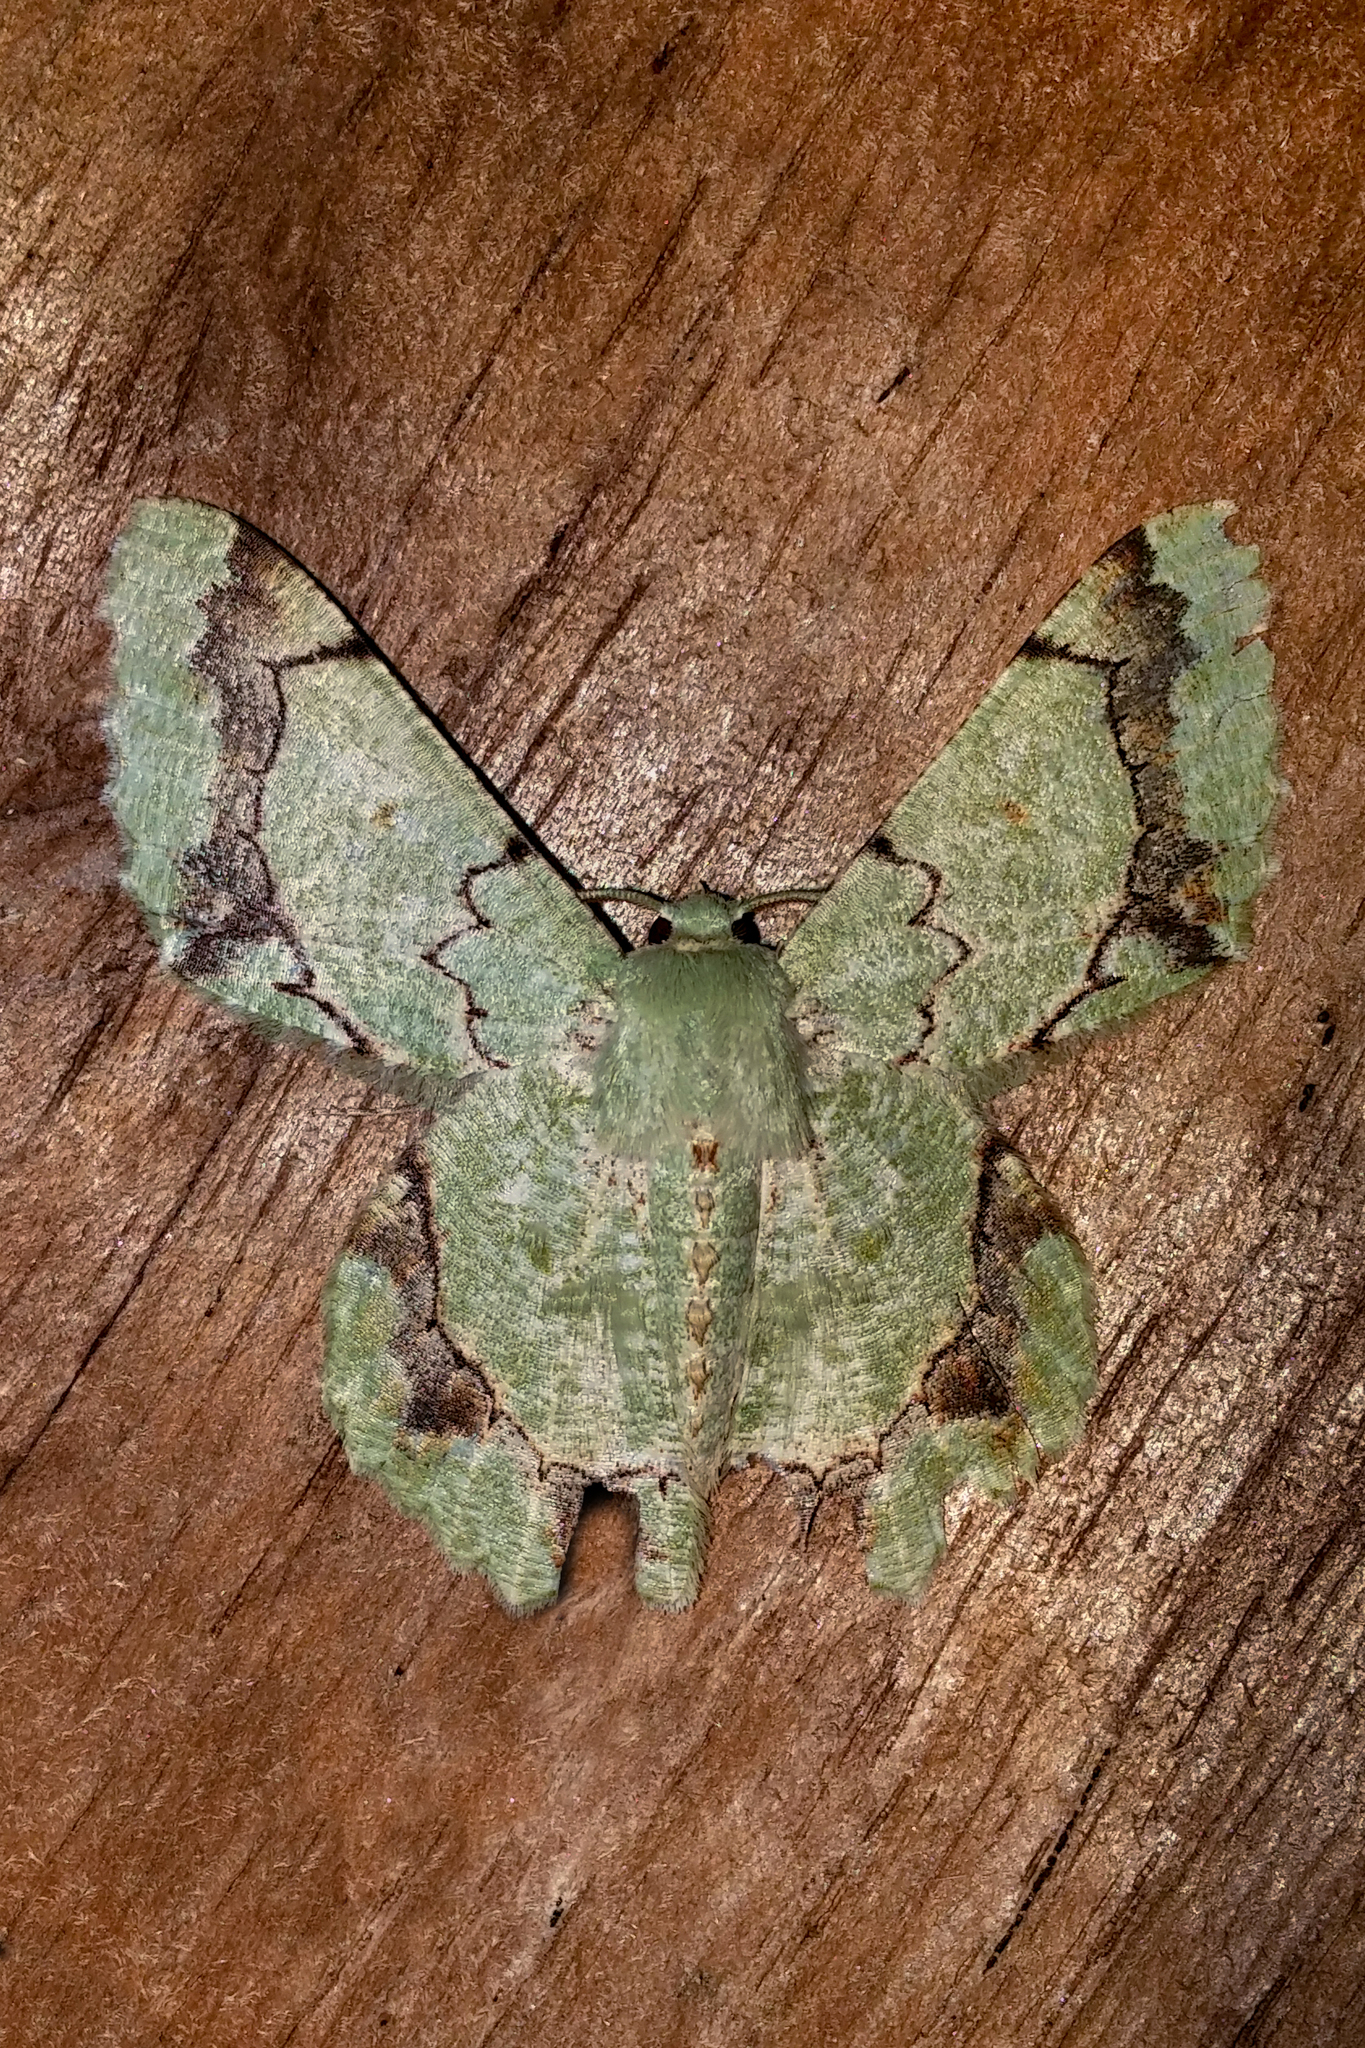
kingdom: Animalia
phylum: Arthropoda
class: Insecta
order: Lepidoptera
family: Geometridae
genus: Pingasa
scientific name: Pingasa meeki
